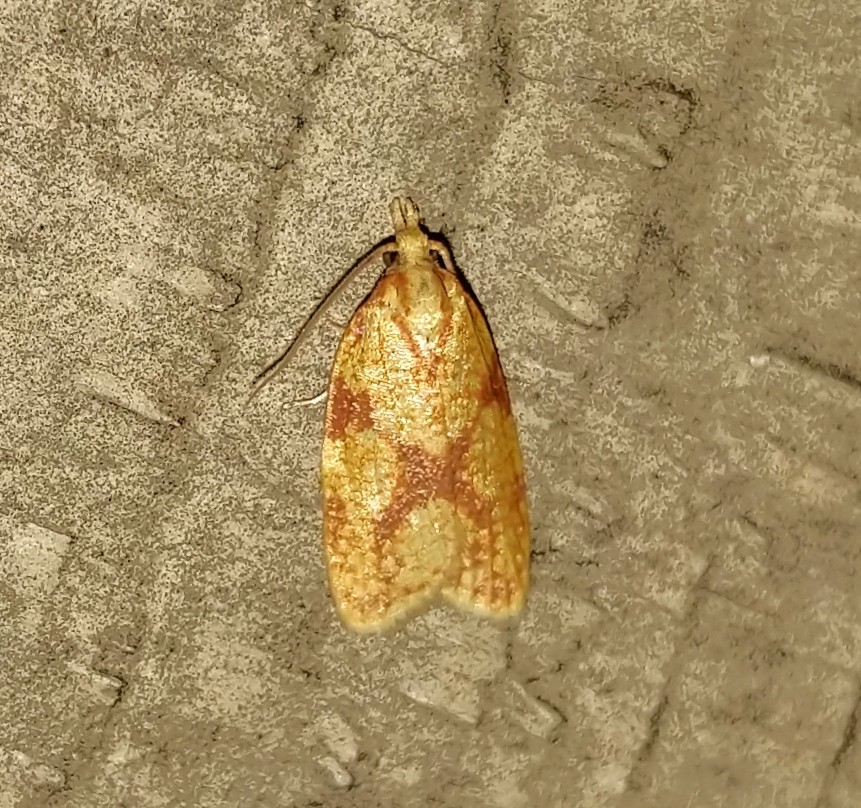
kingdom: Animalia
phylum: Arthropoda
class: Insecta
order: Lepidoptera
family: Tortricidae
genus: Sparganothis
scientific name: Sparganothis sulfureana
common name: Sparganothis fruitworm moth
